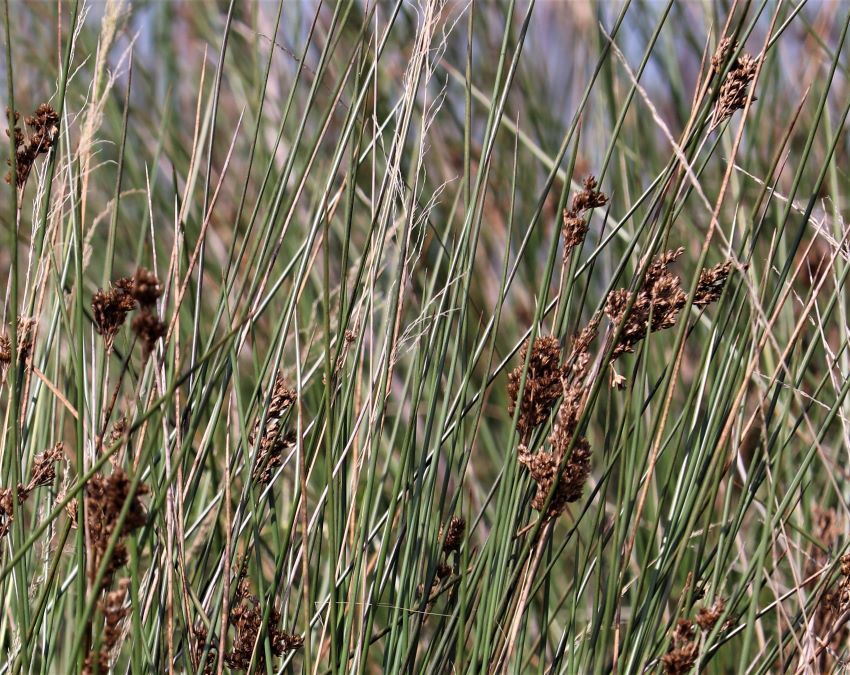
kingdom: Plantae
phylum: Tracheophyta
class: Liliopsida
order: Poales
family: Juncaceae
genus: Juncus
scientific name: Juncus rigidus
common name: Hard sea rush
